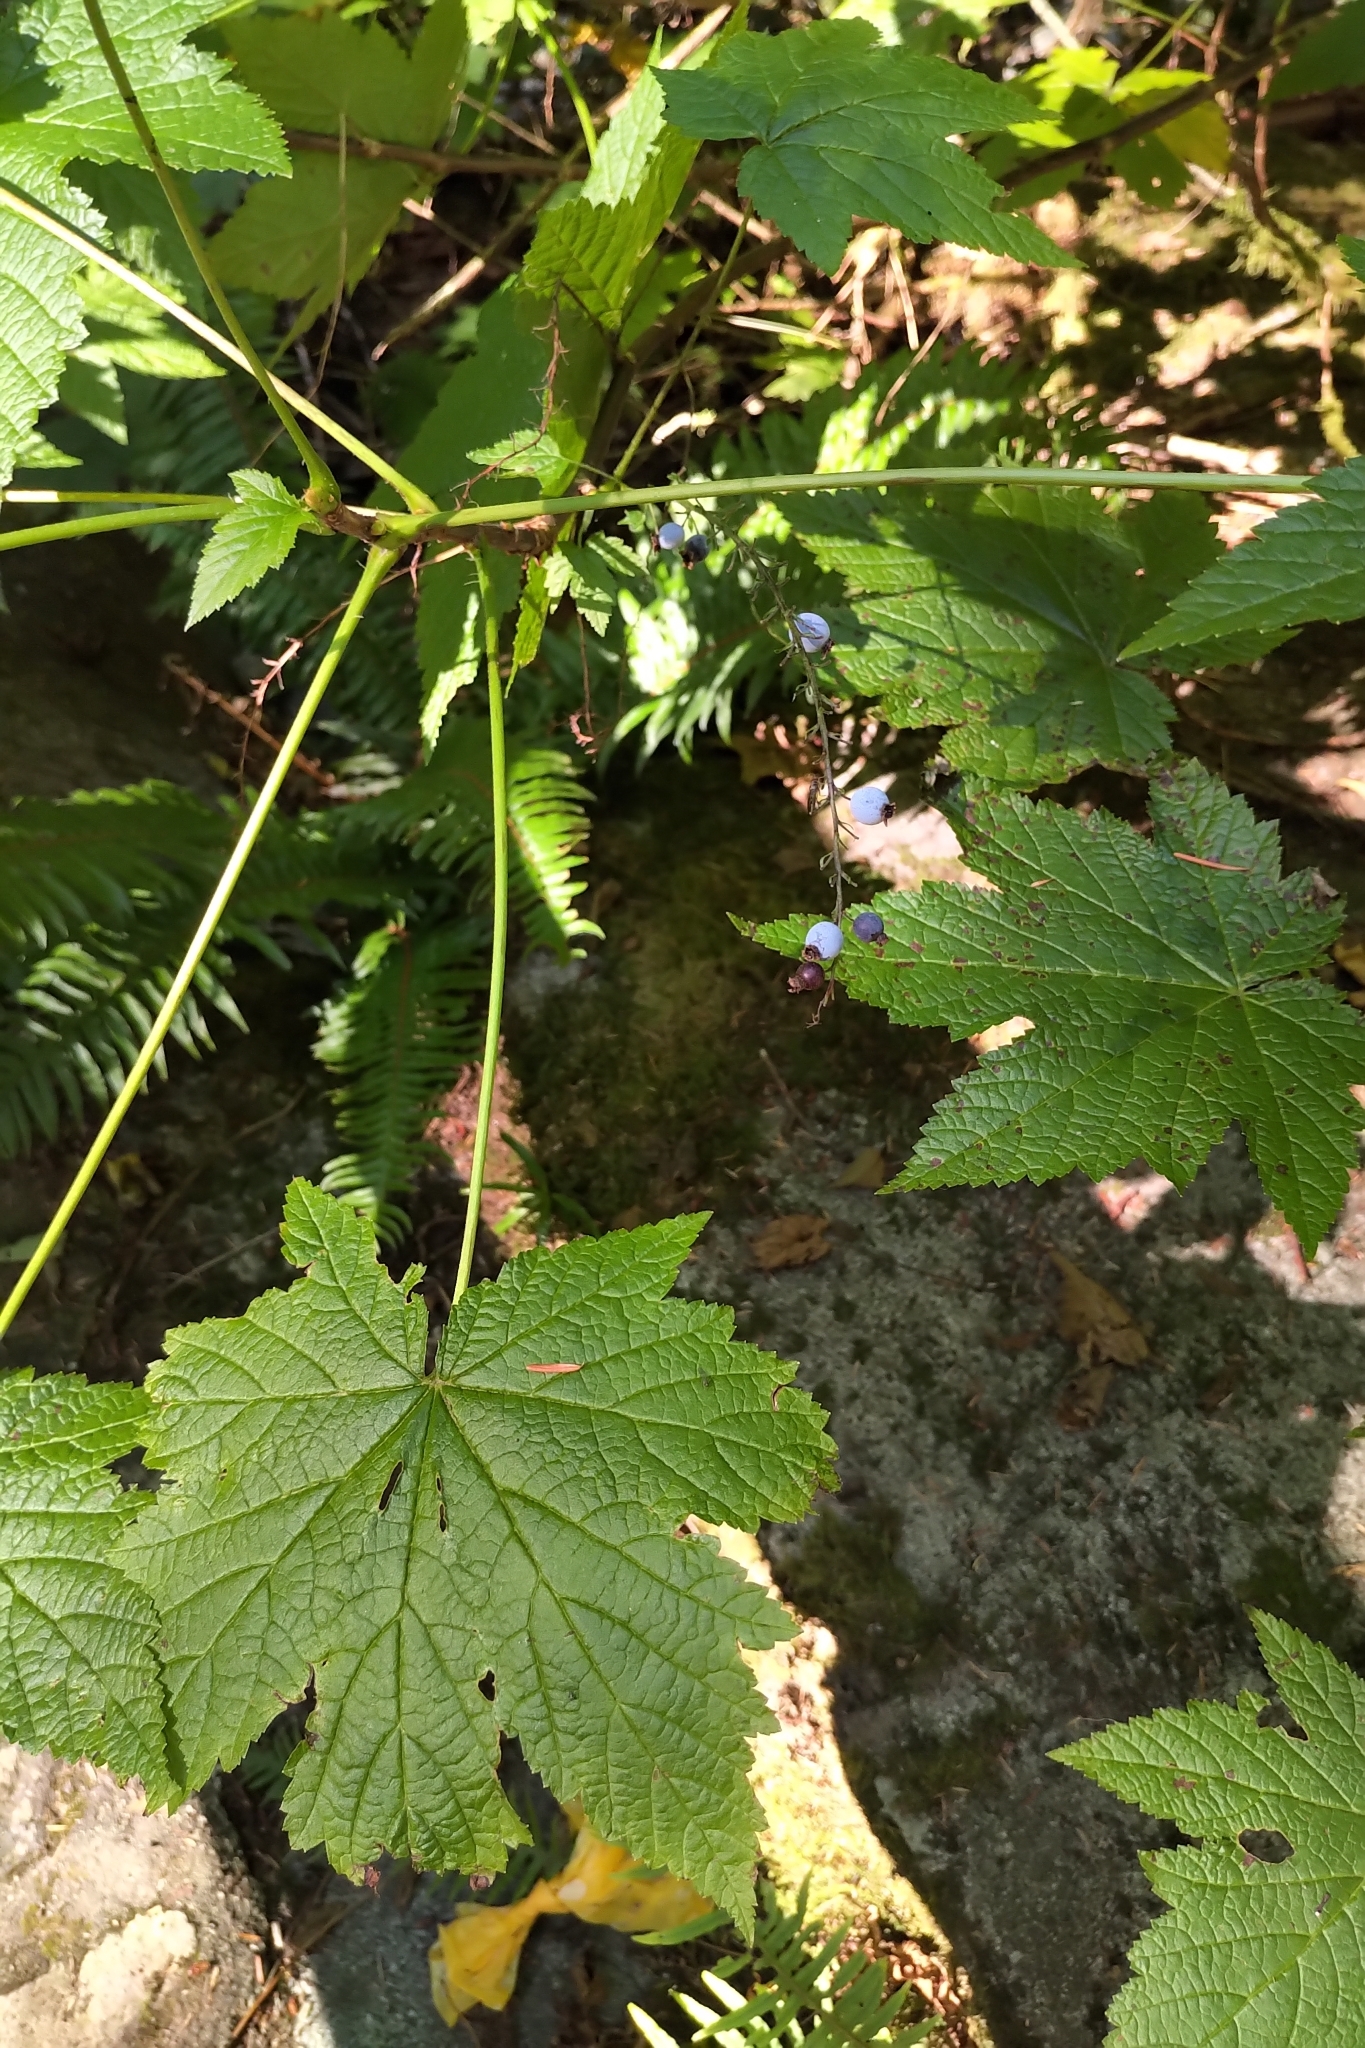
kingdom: Plantae
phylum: Tracheophyta
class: Magnoliopsida
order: Saxifragales
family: Grossulariaceae
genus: Ribes
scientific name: Ribes bracteosum
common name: California black currant
